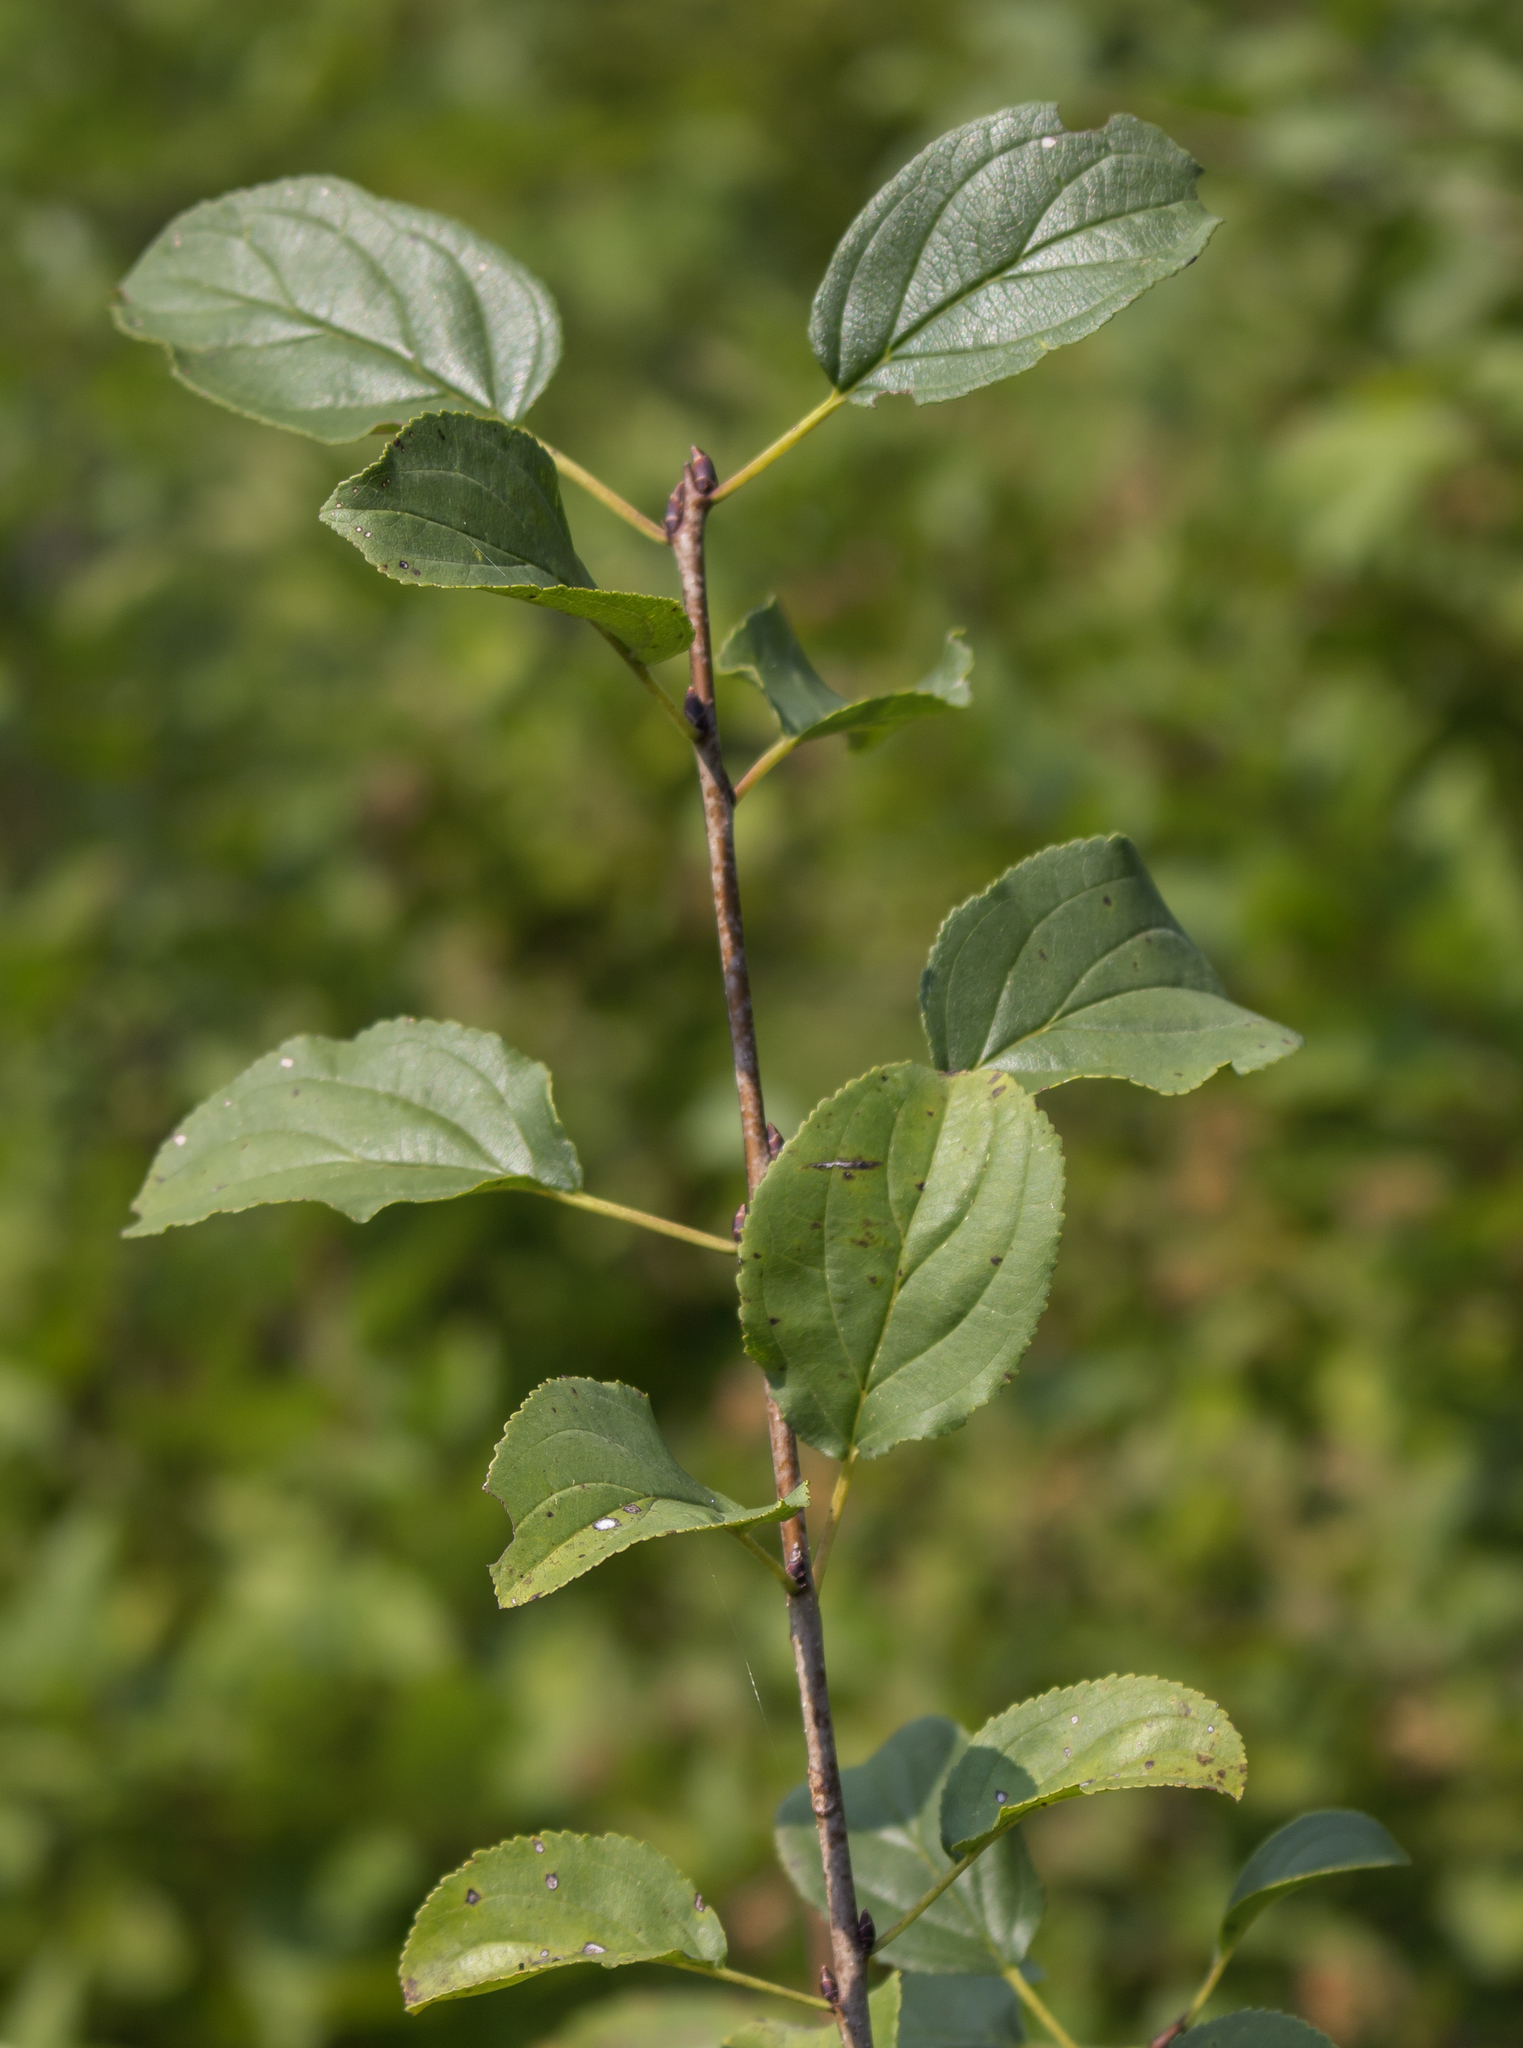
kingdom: Plantae
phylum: Tracheophyta
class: Magnoliopsida
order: Rosales
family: Rhamnaceae
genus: Rhamnus
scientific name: Rhamnus cathartica
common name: Common buckthorn
